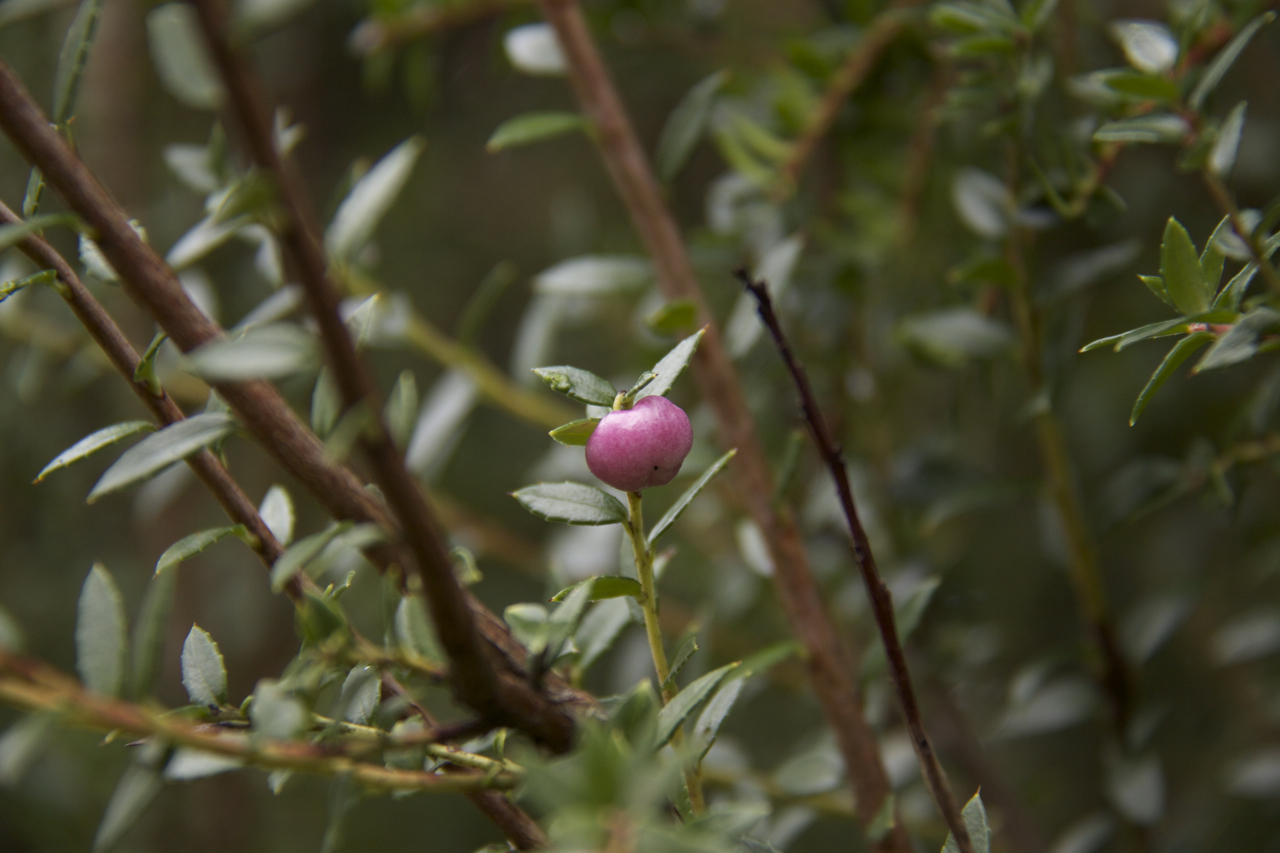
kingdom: Plantae
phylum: Tracheophyta
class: Magnoliopsida
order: Ericales
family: Ericaceae
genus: Gaultheria
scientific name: Gaultheria mucronata
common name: Prickly heath
